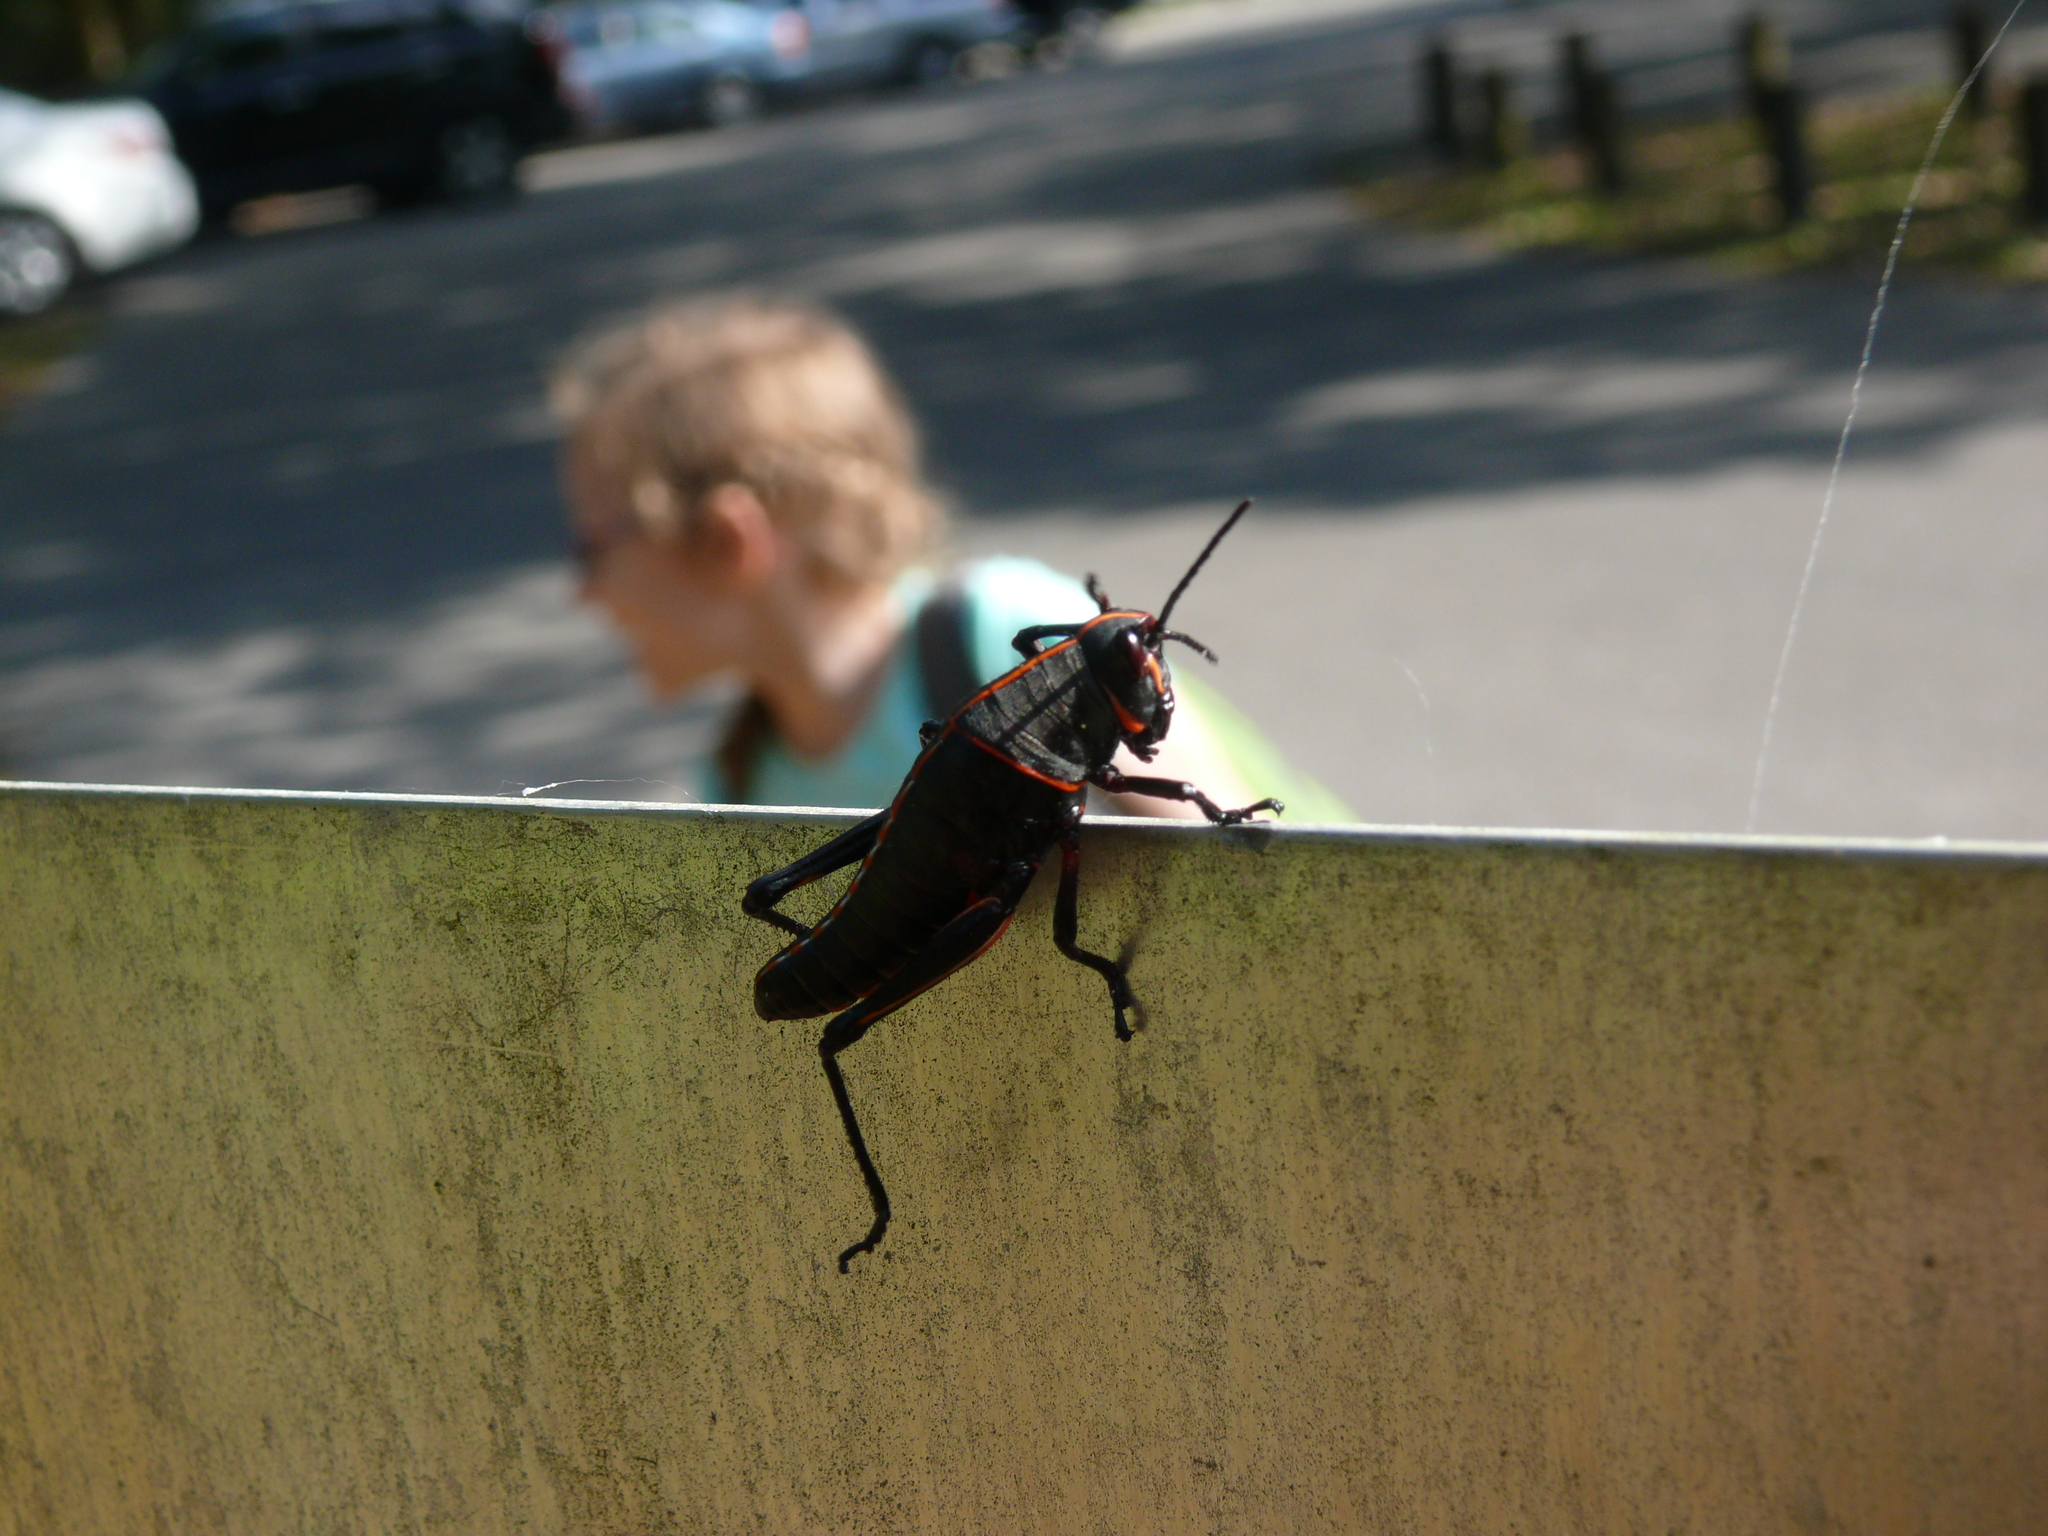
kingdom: Animalia
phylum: Arthropoda
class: Insecta
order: Orthoptera
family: Romaleidae
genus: Romalea
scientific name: Romalea microptera
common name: Eastern lubber grasshopper
